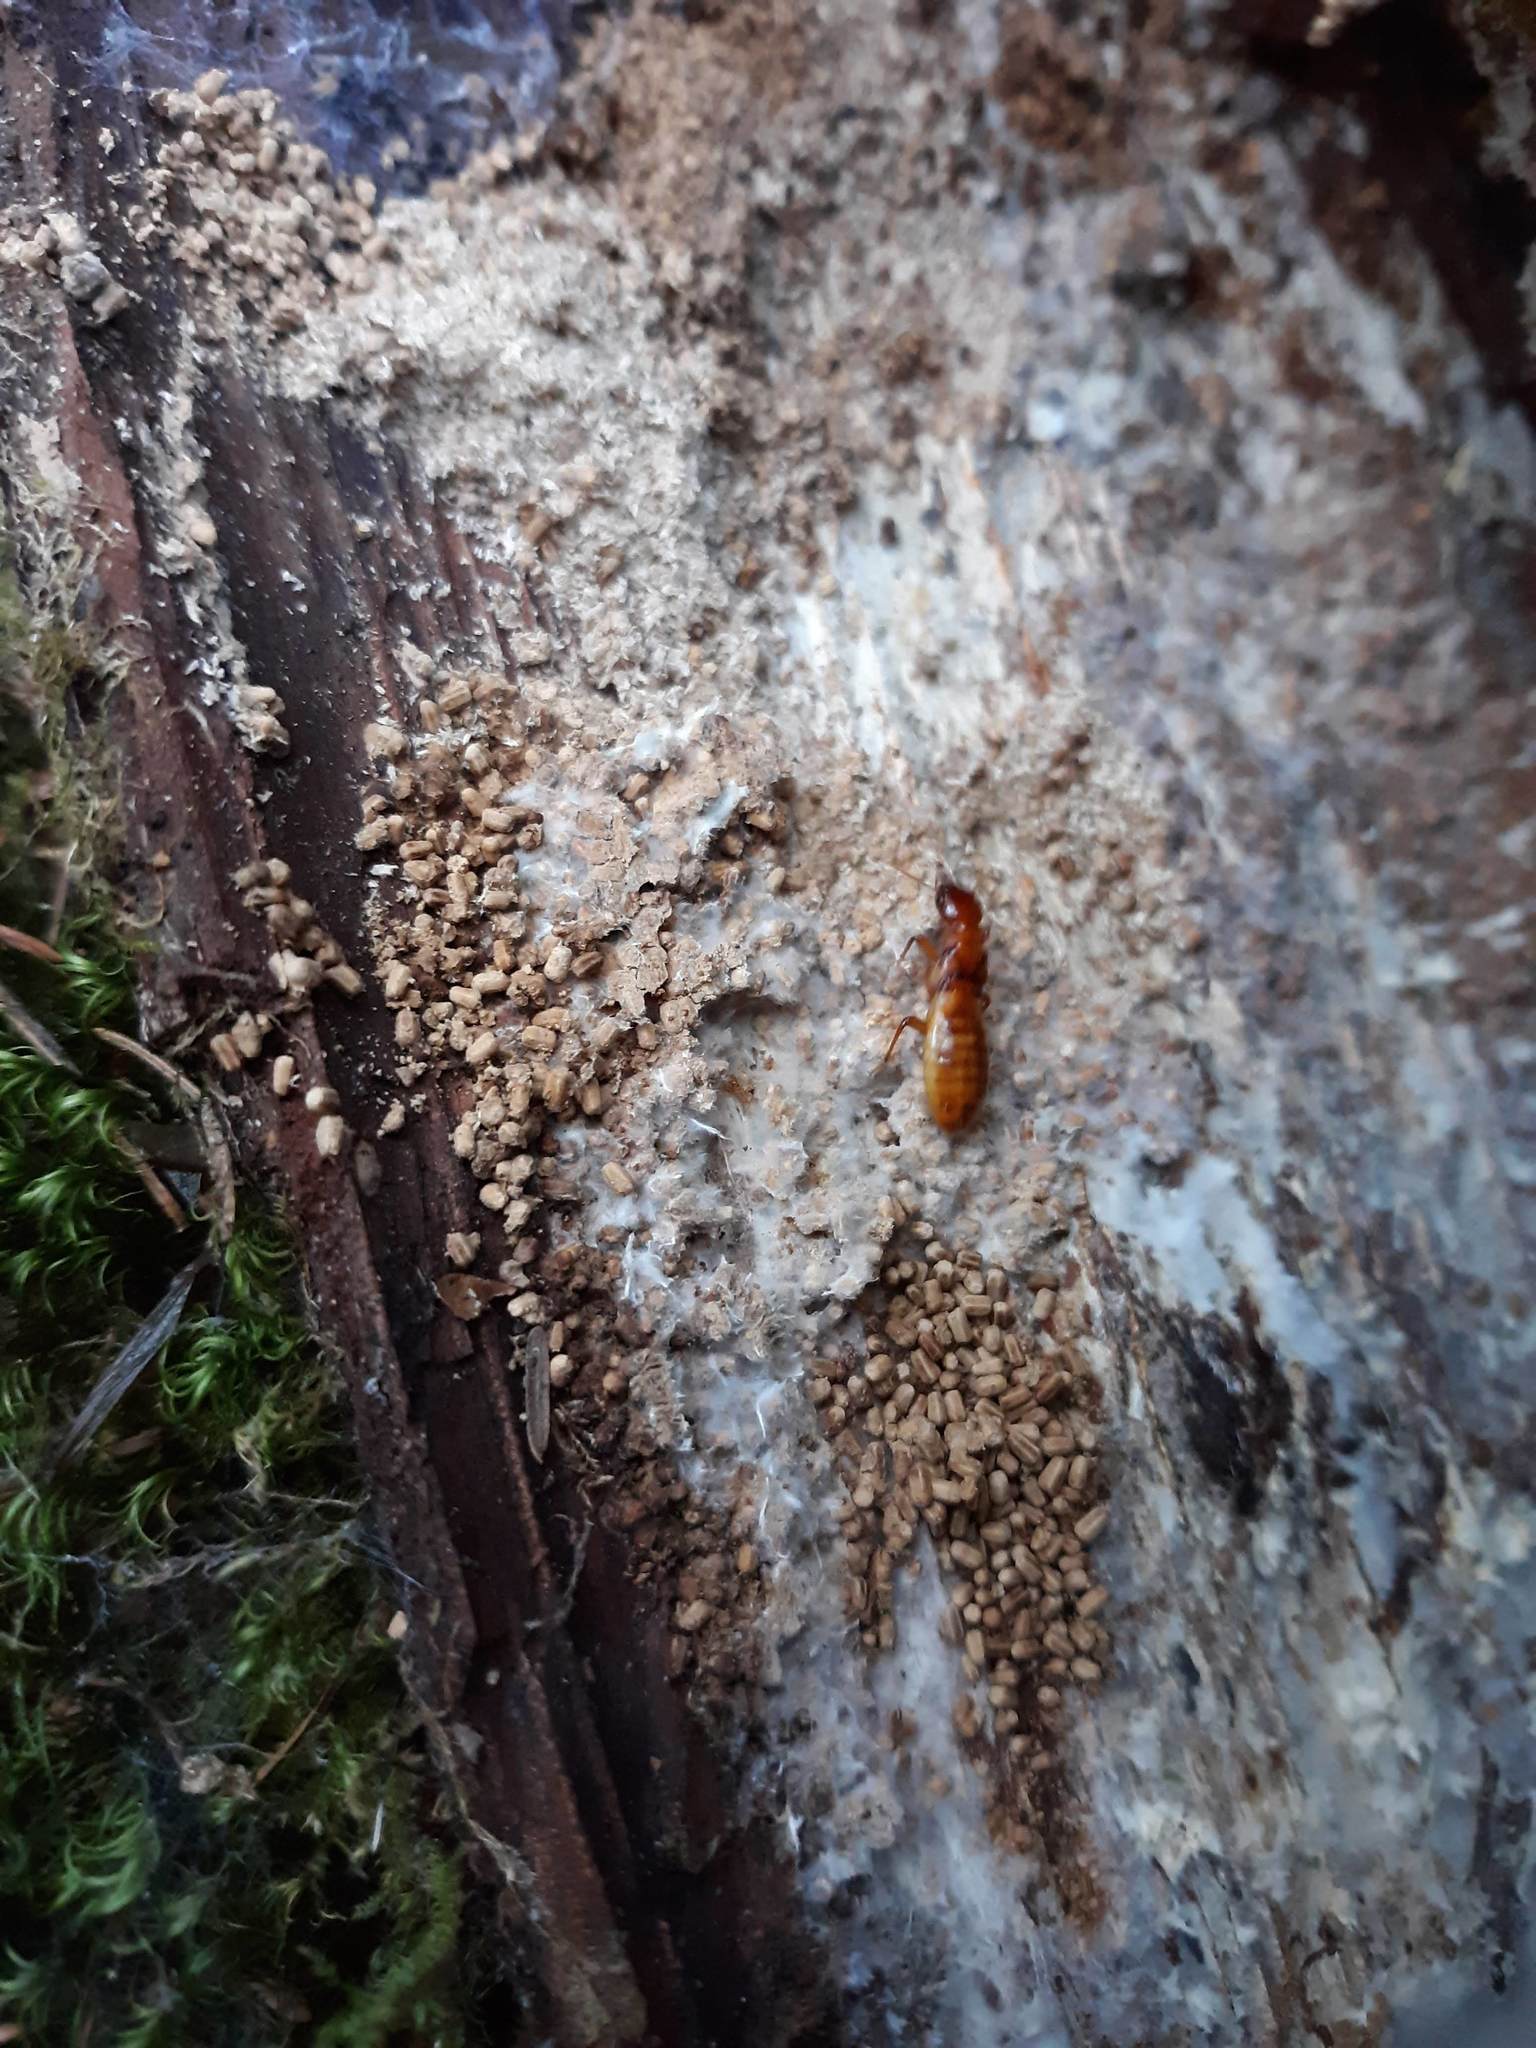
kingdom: Animalia
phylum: Arthropoda
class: Insecta
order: Blattodea
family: Archotermopsidae
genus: Zootermopsis
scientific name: Zootermopsis angusticollis
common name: Rottenwood termite
